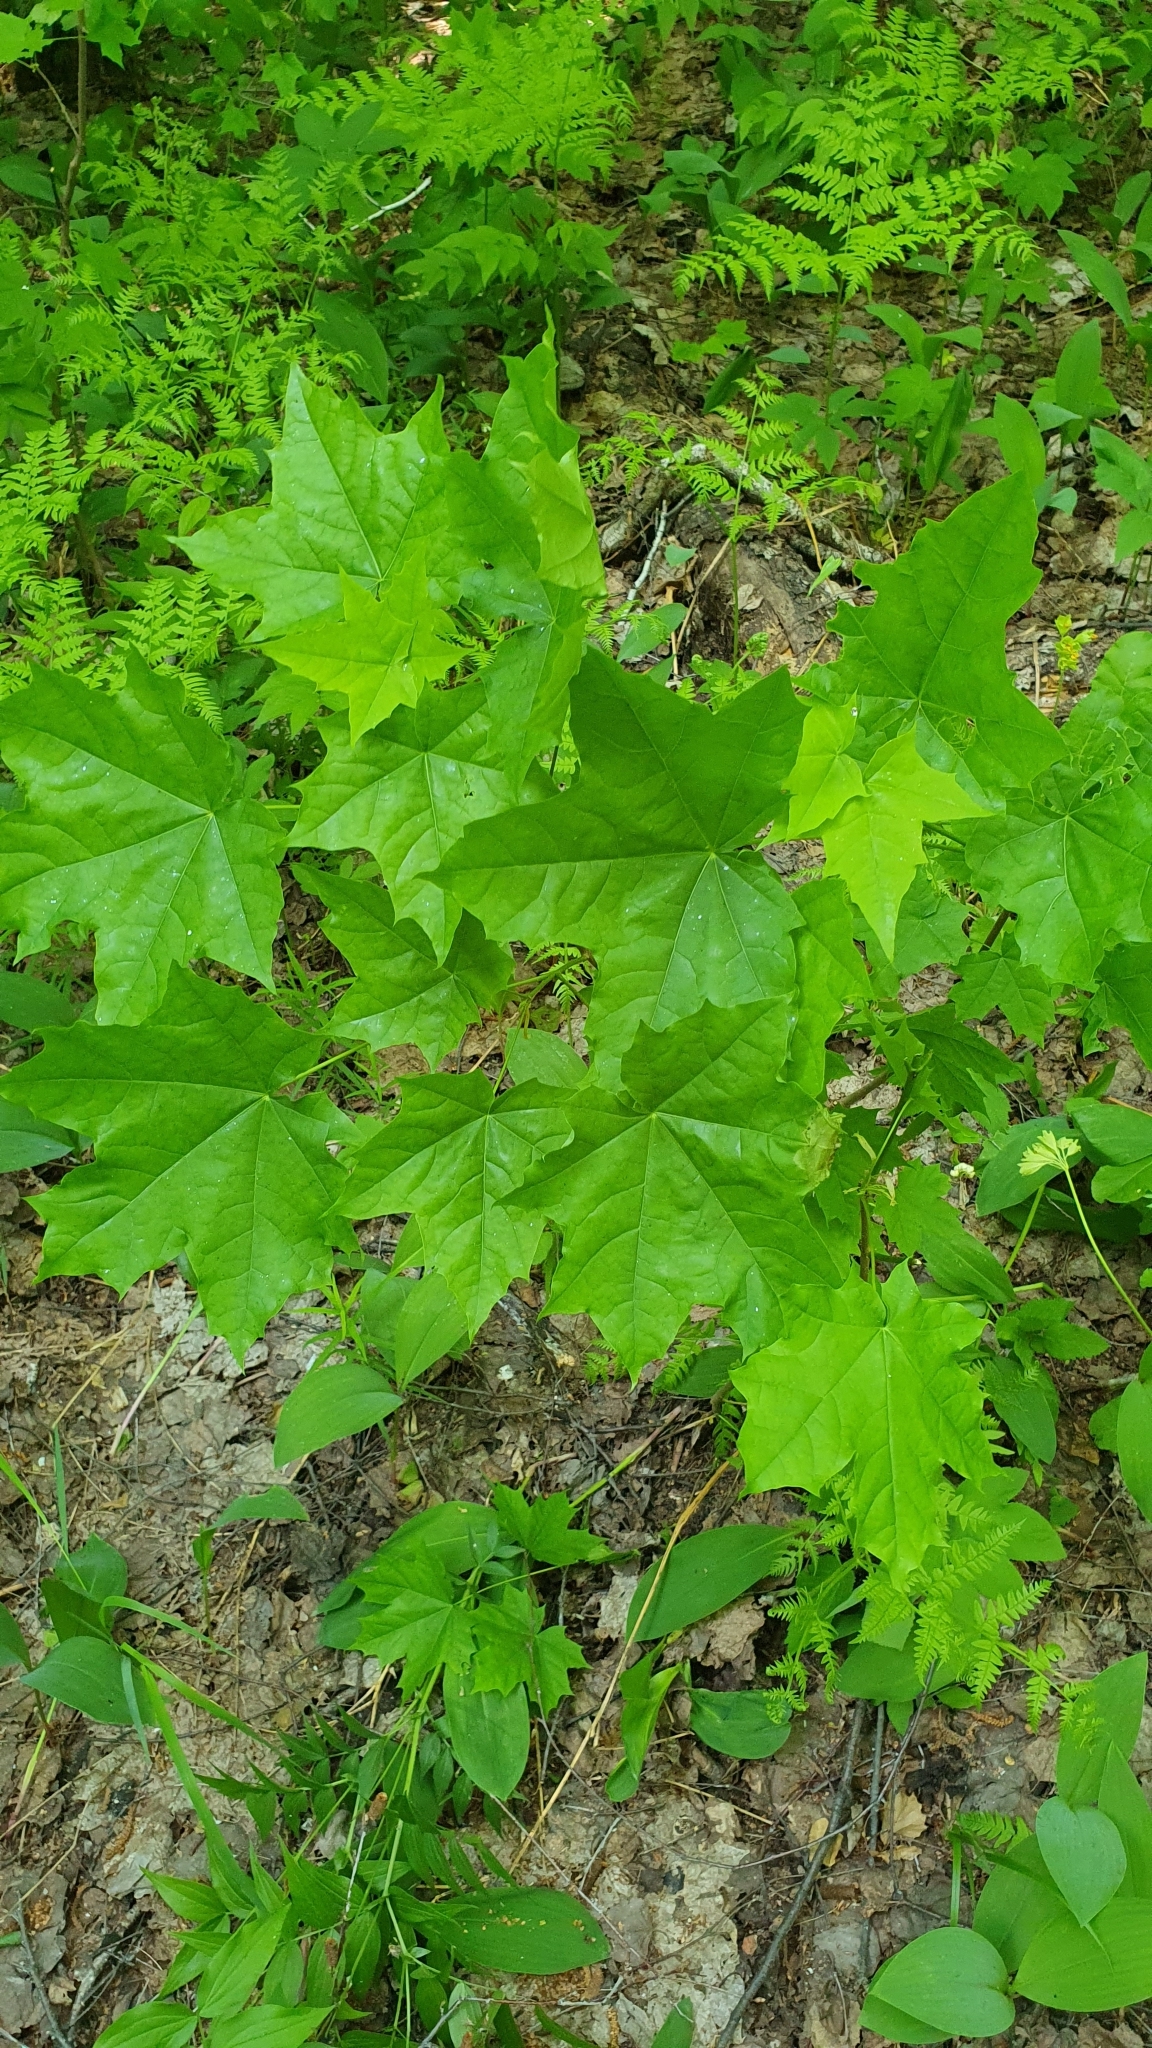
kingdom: Plantae
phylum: Tracheophyta
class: Magnoliopsida
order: Sapindales
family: Sapindaceae
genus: Acer
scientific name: Acer platanoides
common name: Norway maple
